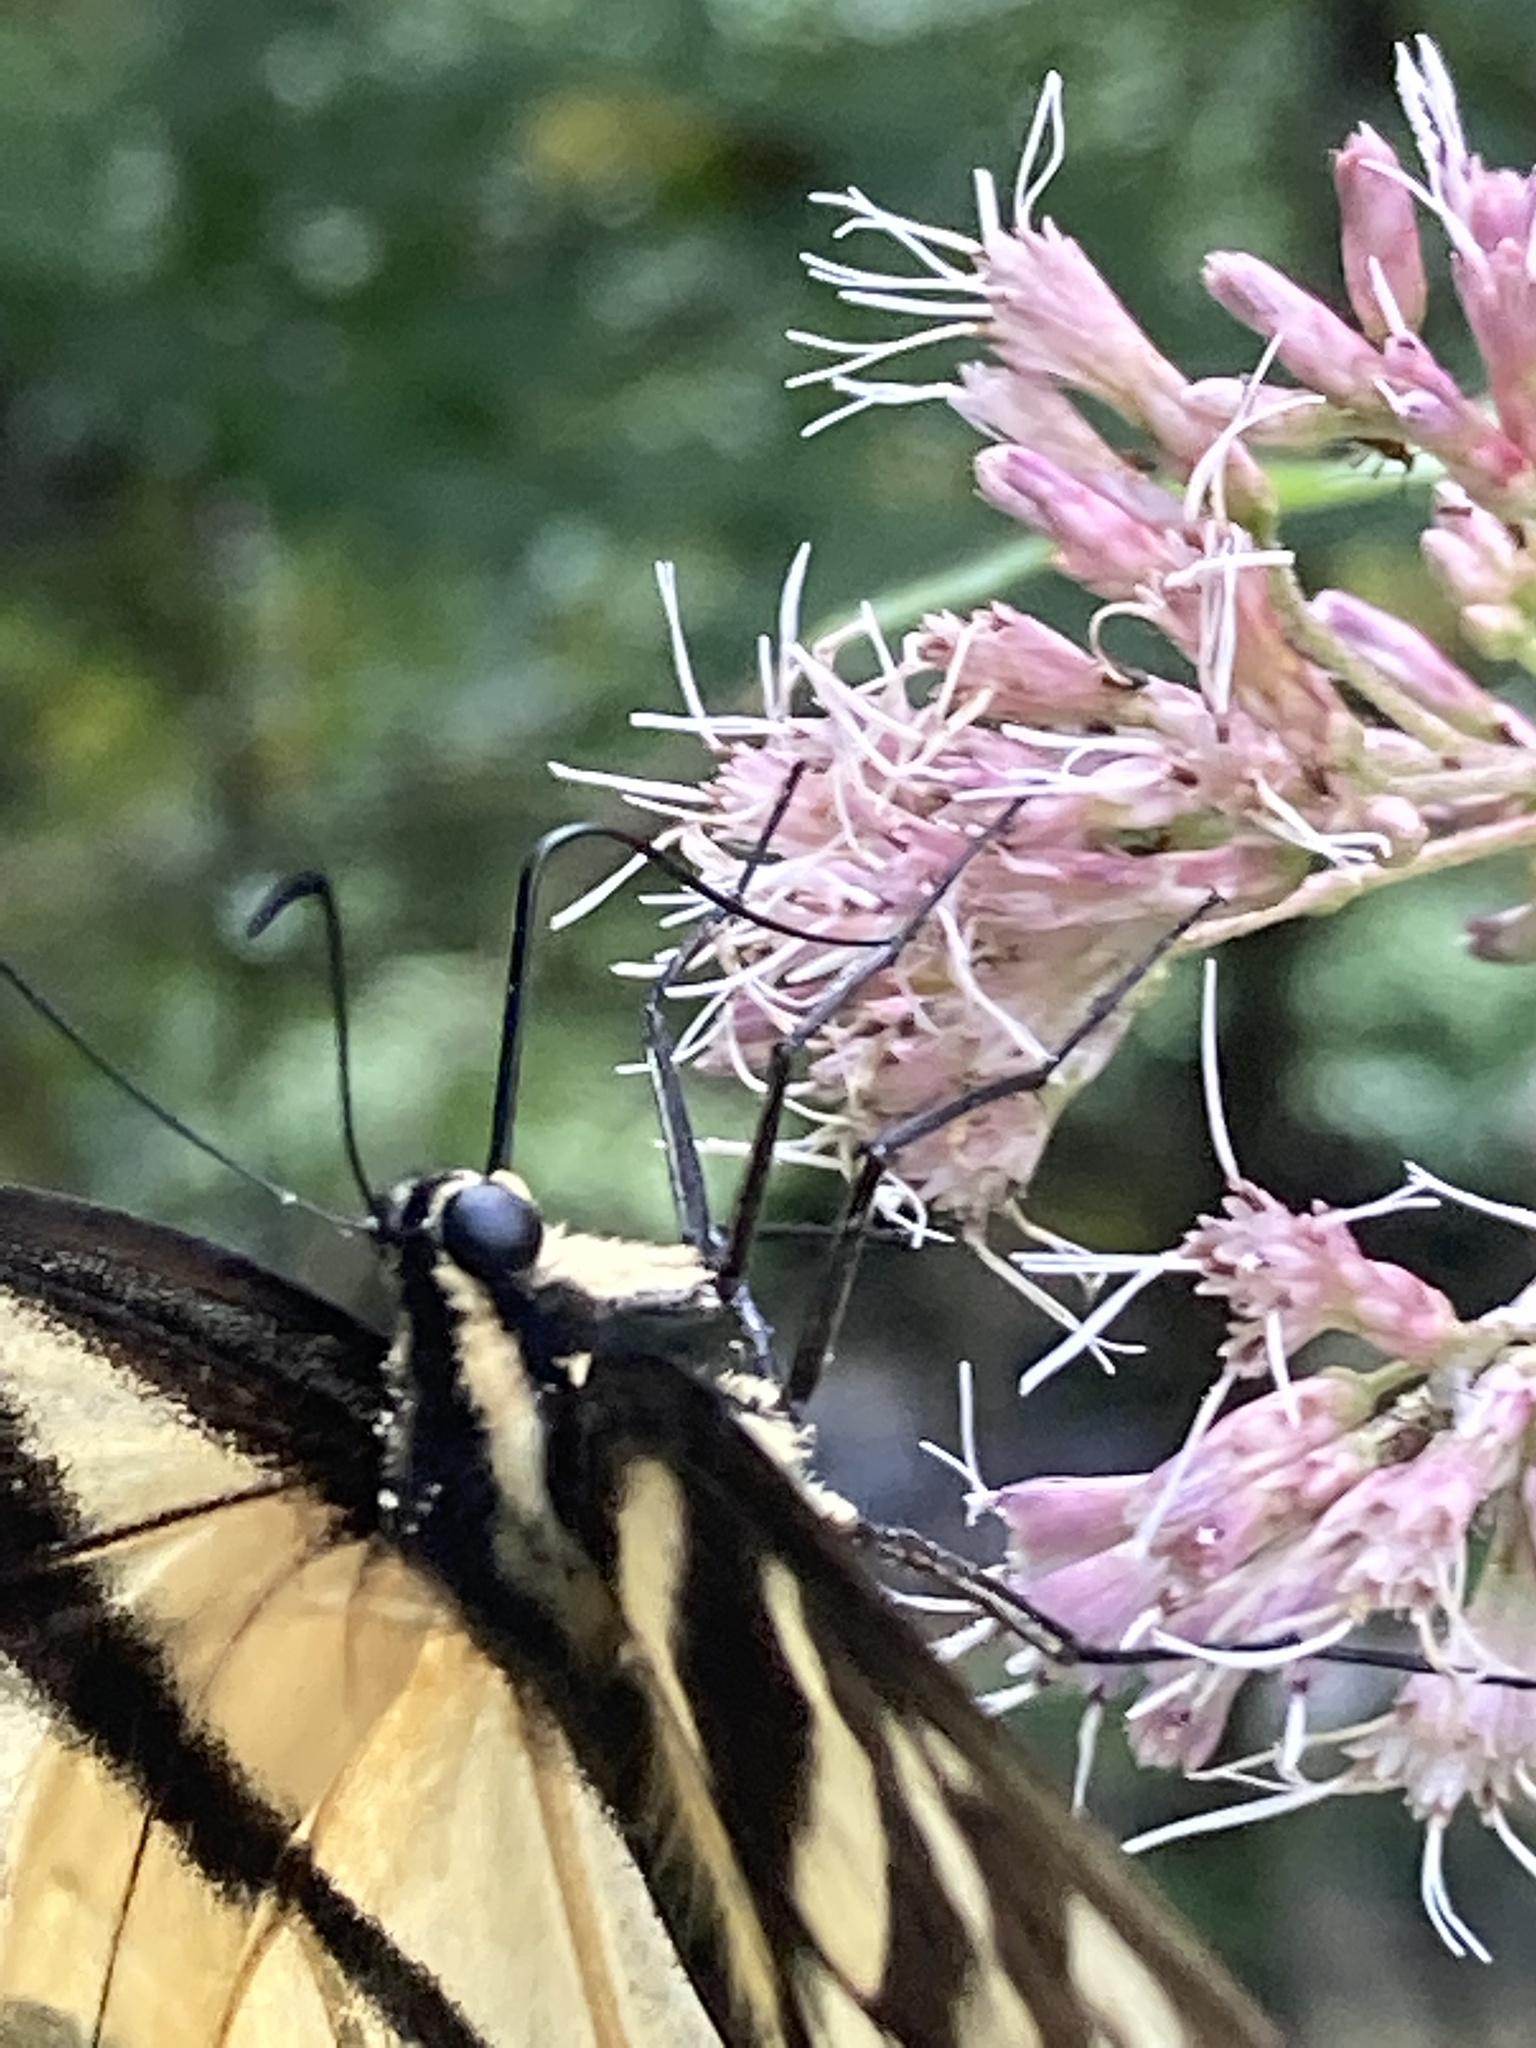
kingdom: Animalia
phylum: Arthropoda
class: Insecta
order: Lepidoptera
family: Papilionidae
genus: Papilio
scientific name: Papilio glaucus
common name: Tiger swallowtail
